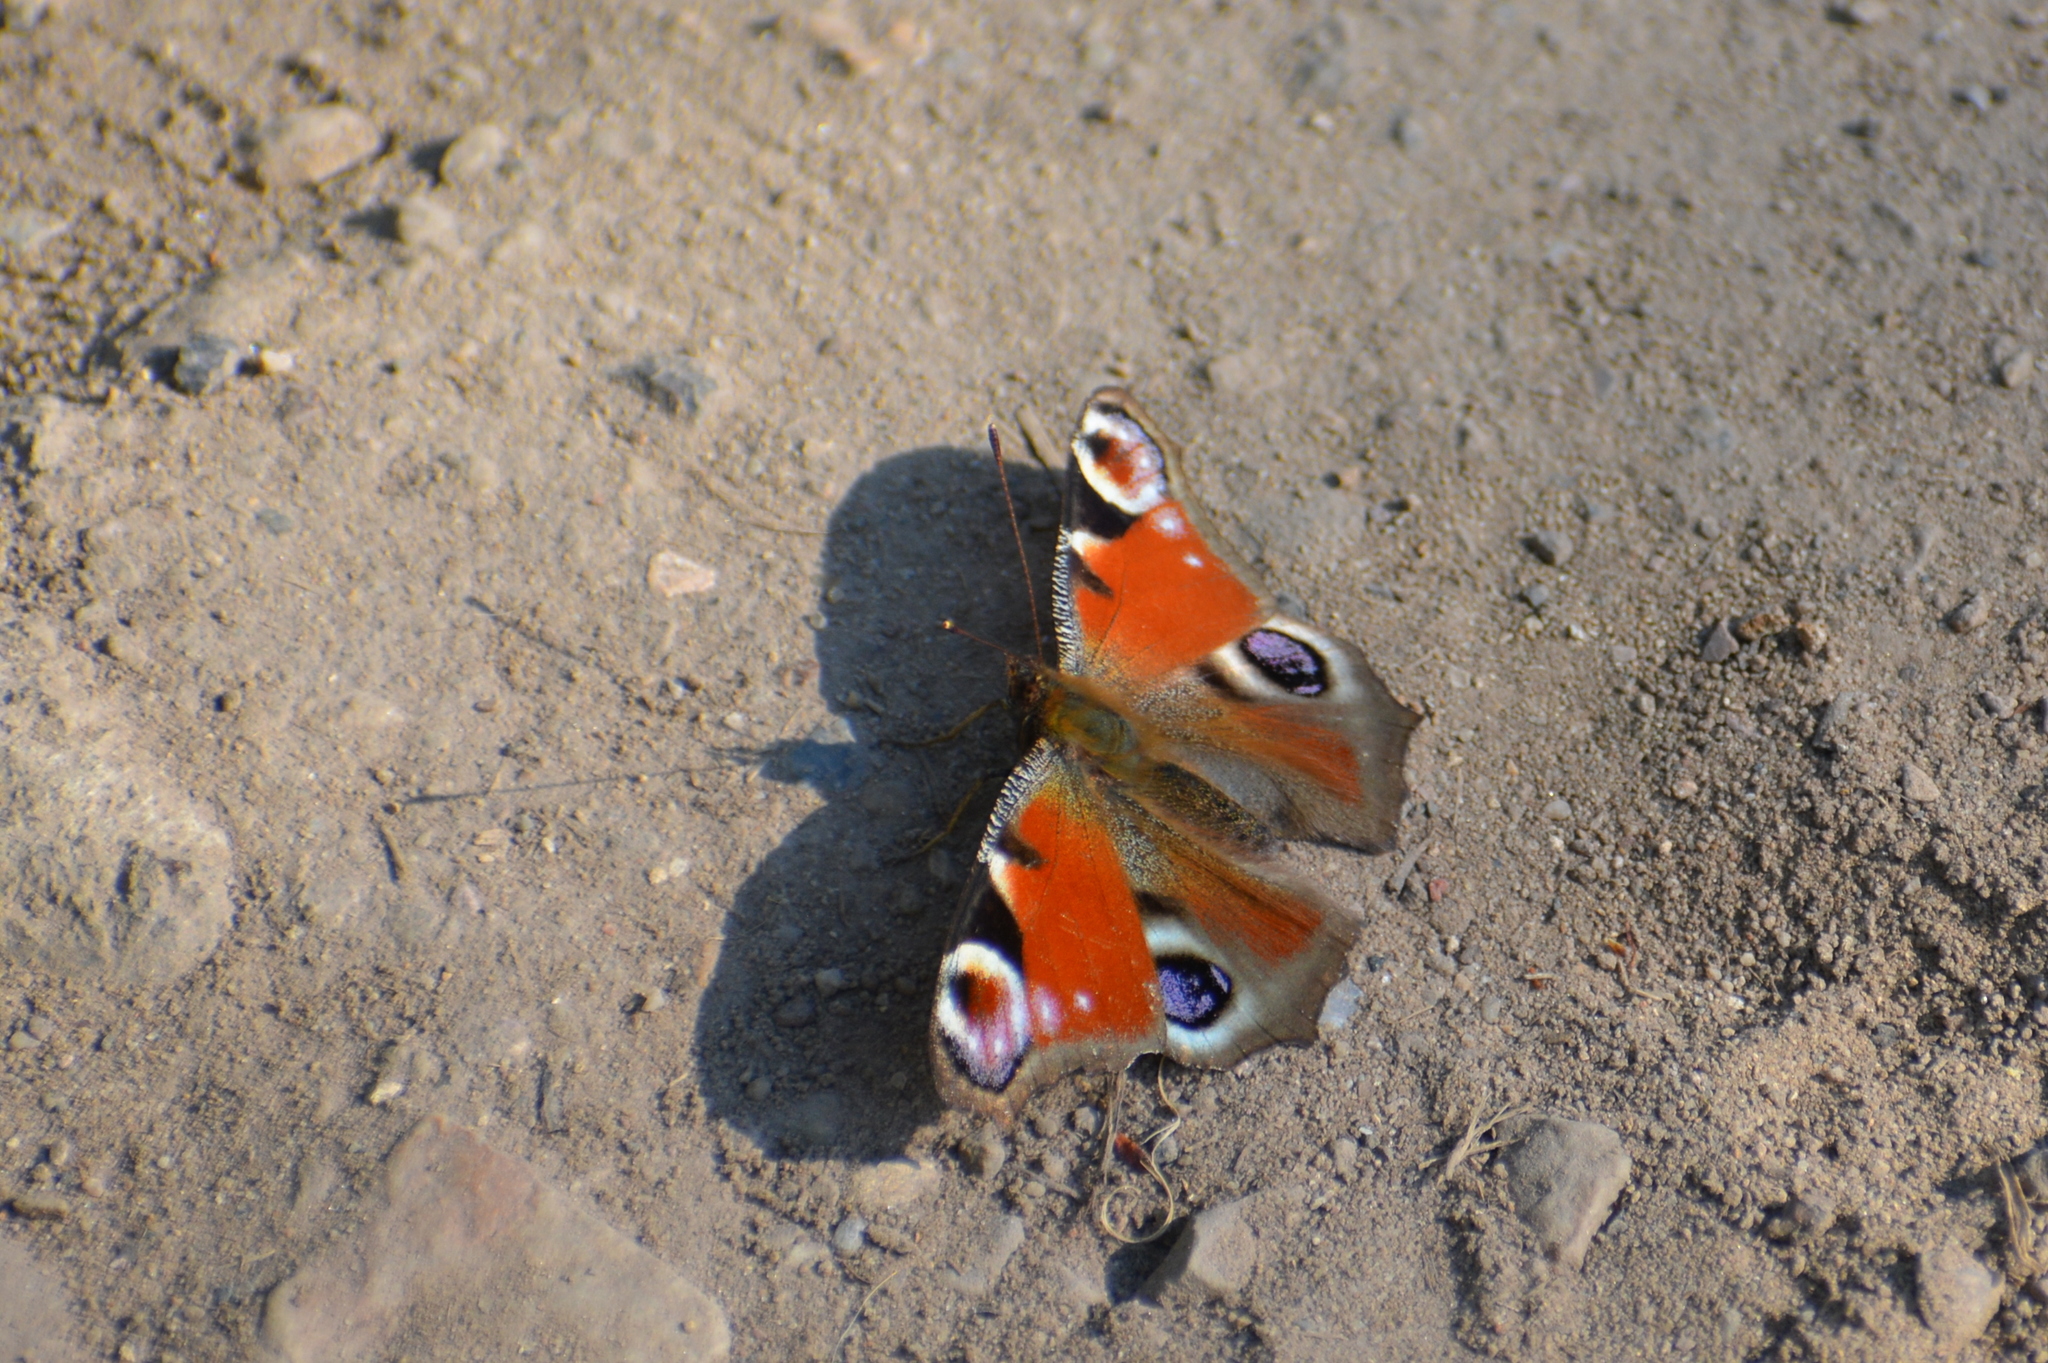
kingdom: Animalia
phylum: Arthropoda
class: Insecta
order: Lepidoptera
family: Nymphalidae
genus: Aglais
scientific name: Aglais io
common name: Peacock
